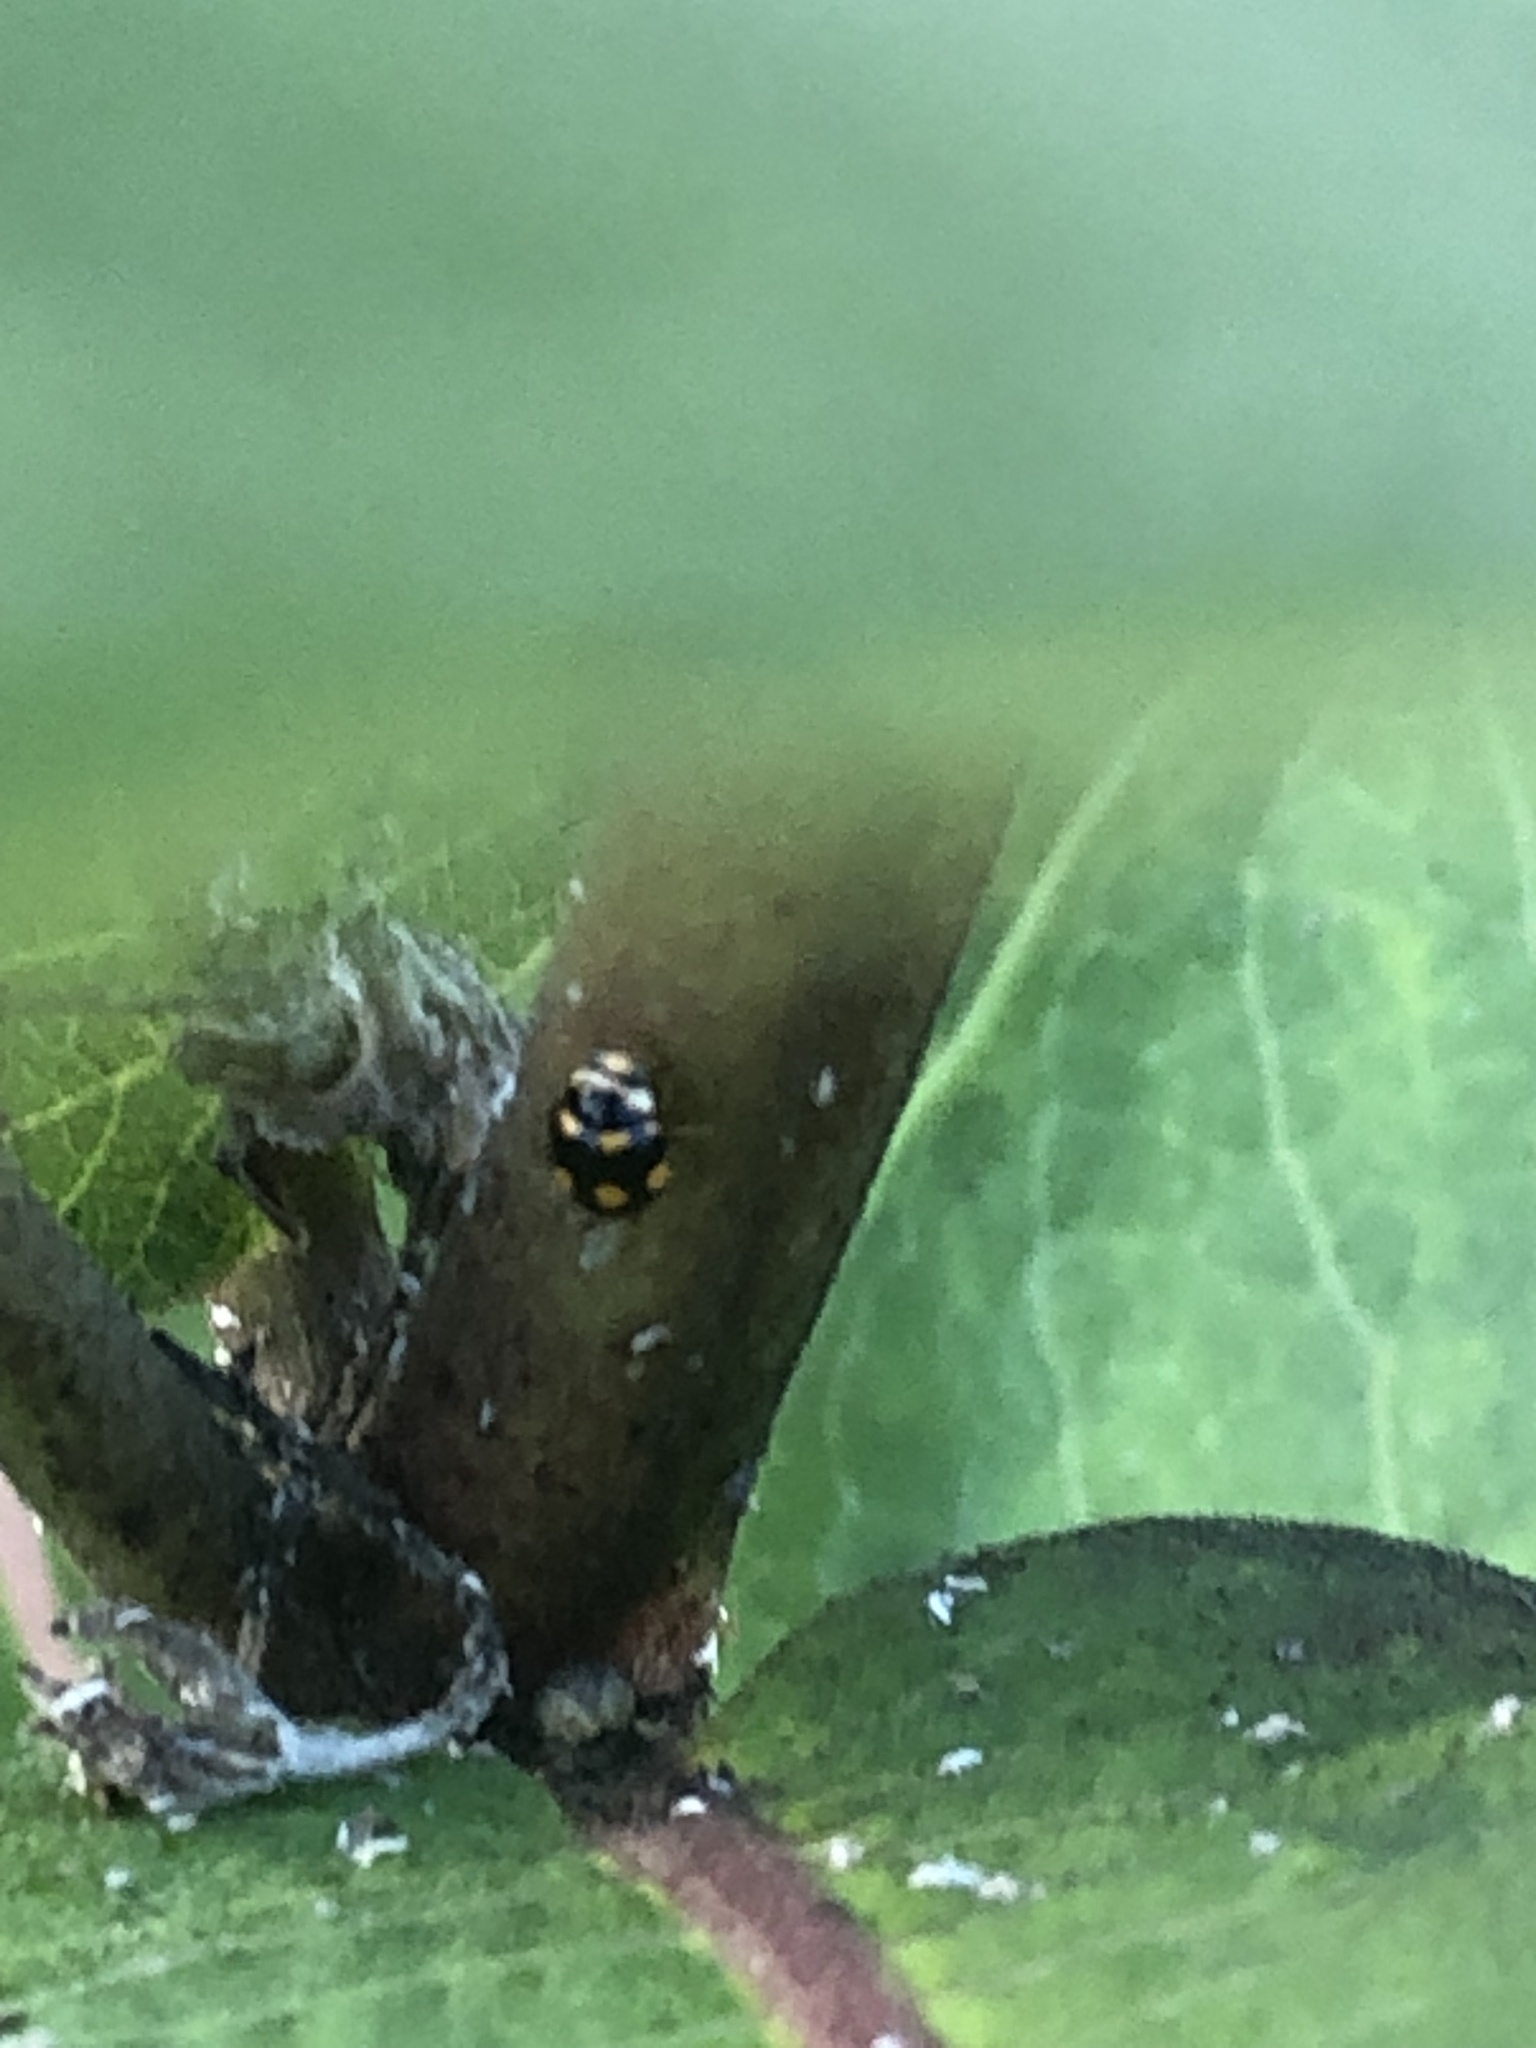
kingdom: Animalia
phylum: Arthropoda
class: Insecta
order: Coleoptera
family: Coccinellidae
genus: Brachiacantha
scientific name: Brachiacantha ursina
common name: Ursine spurleg lady beetle
